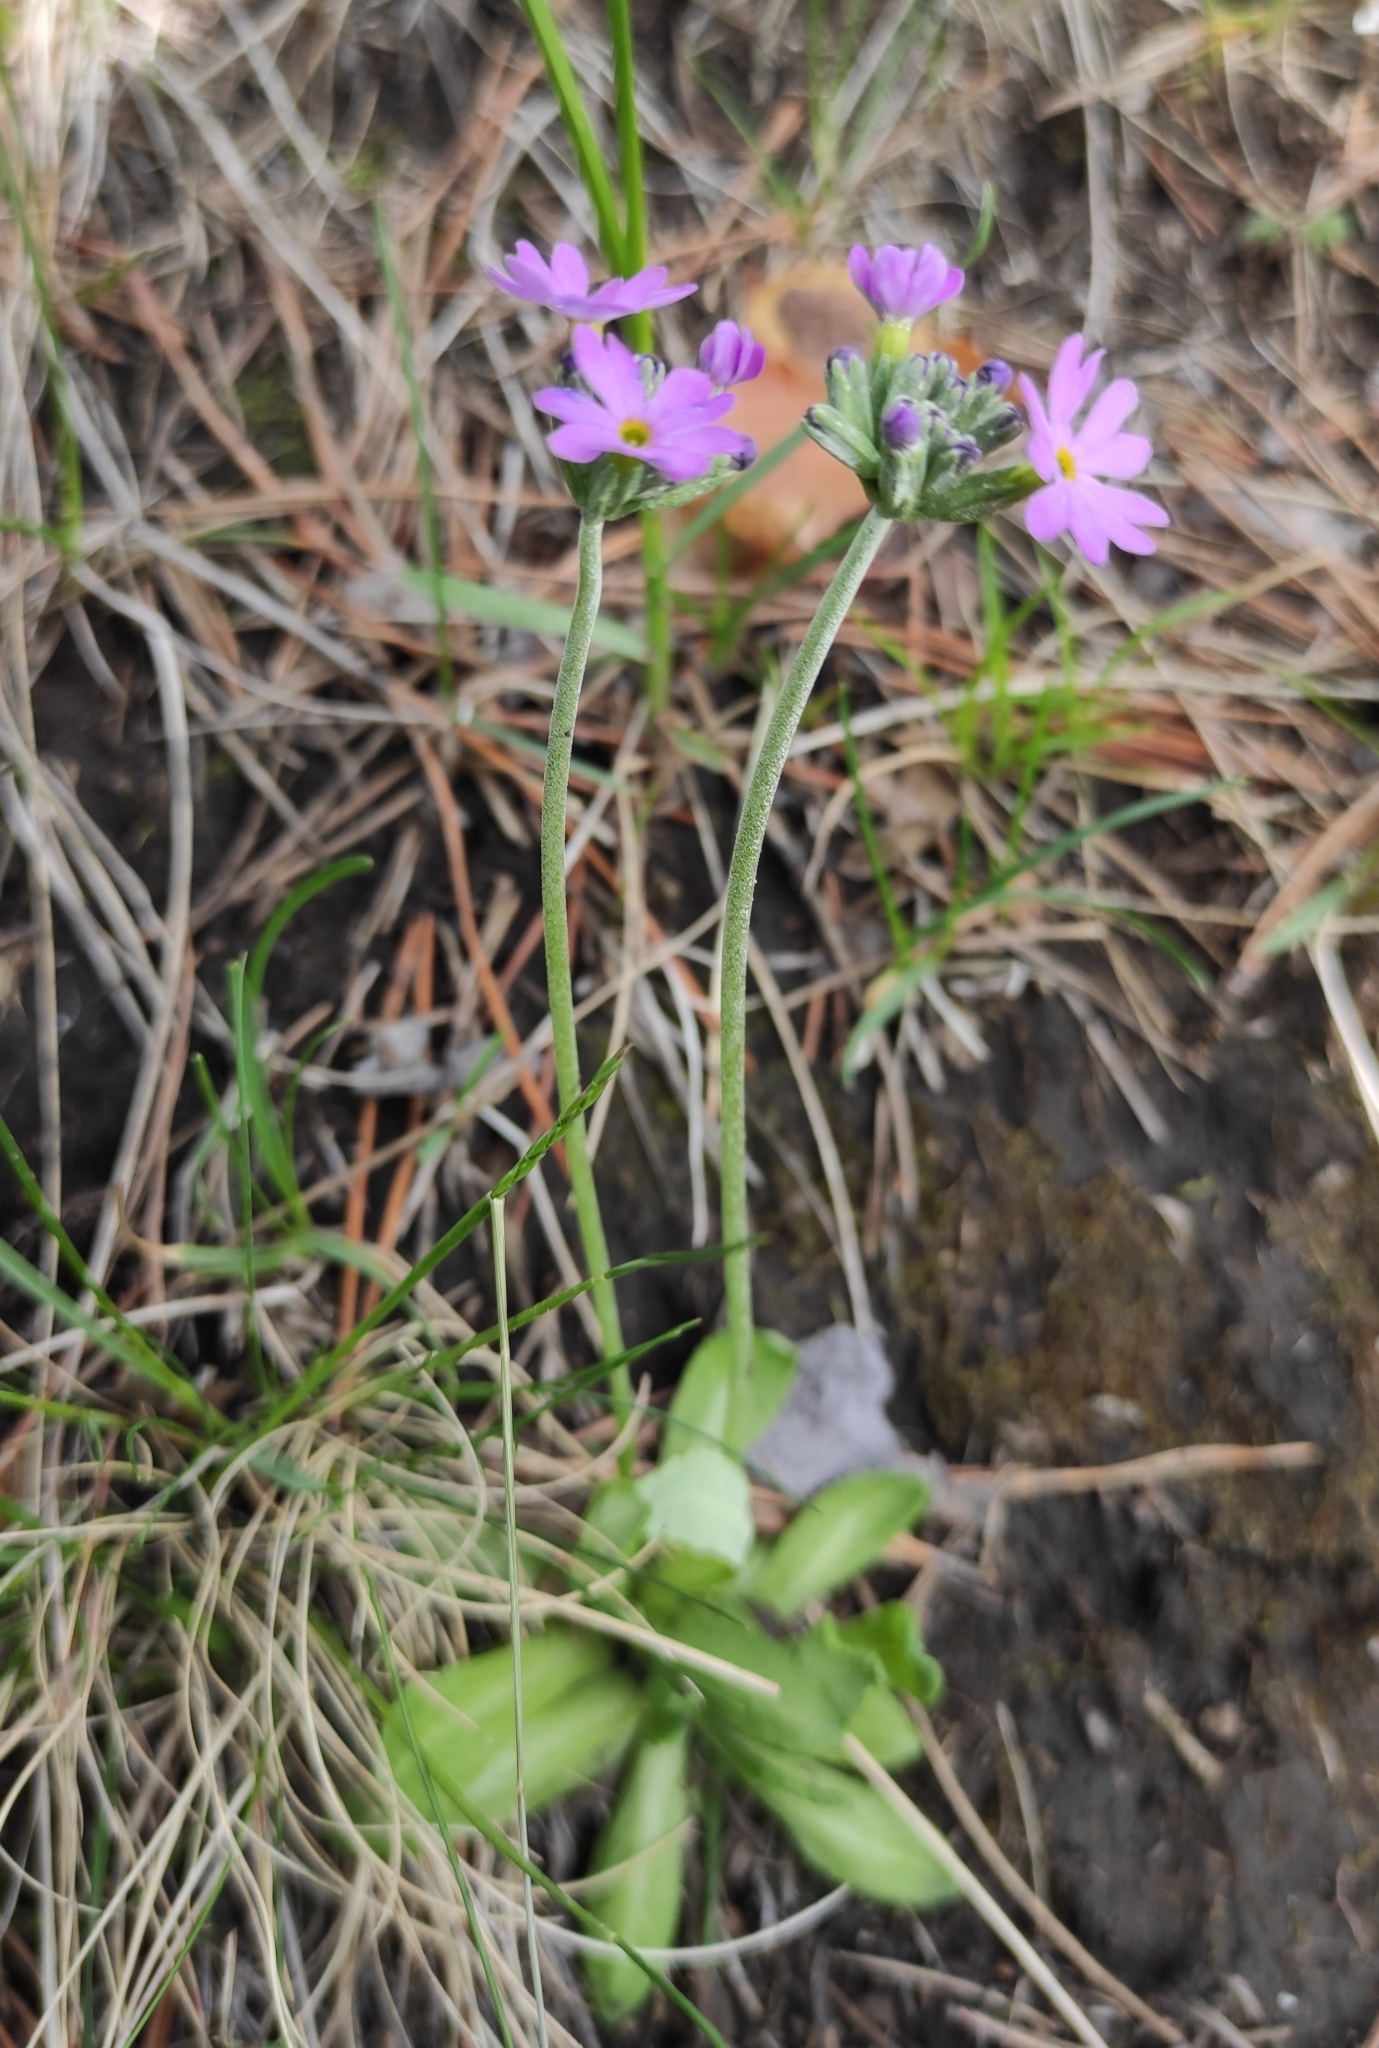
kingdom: Plantae
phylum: Tracheophyta
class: Magnoliopsida
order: Ericales
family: Primulaceae
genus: Primula
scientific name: Primula farinosa
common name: Bird's-eye primrose
